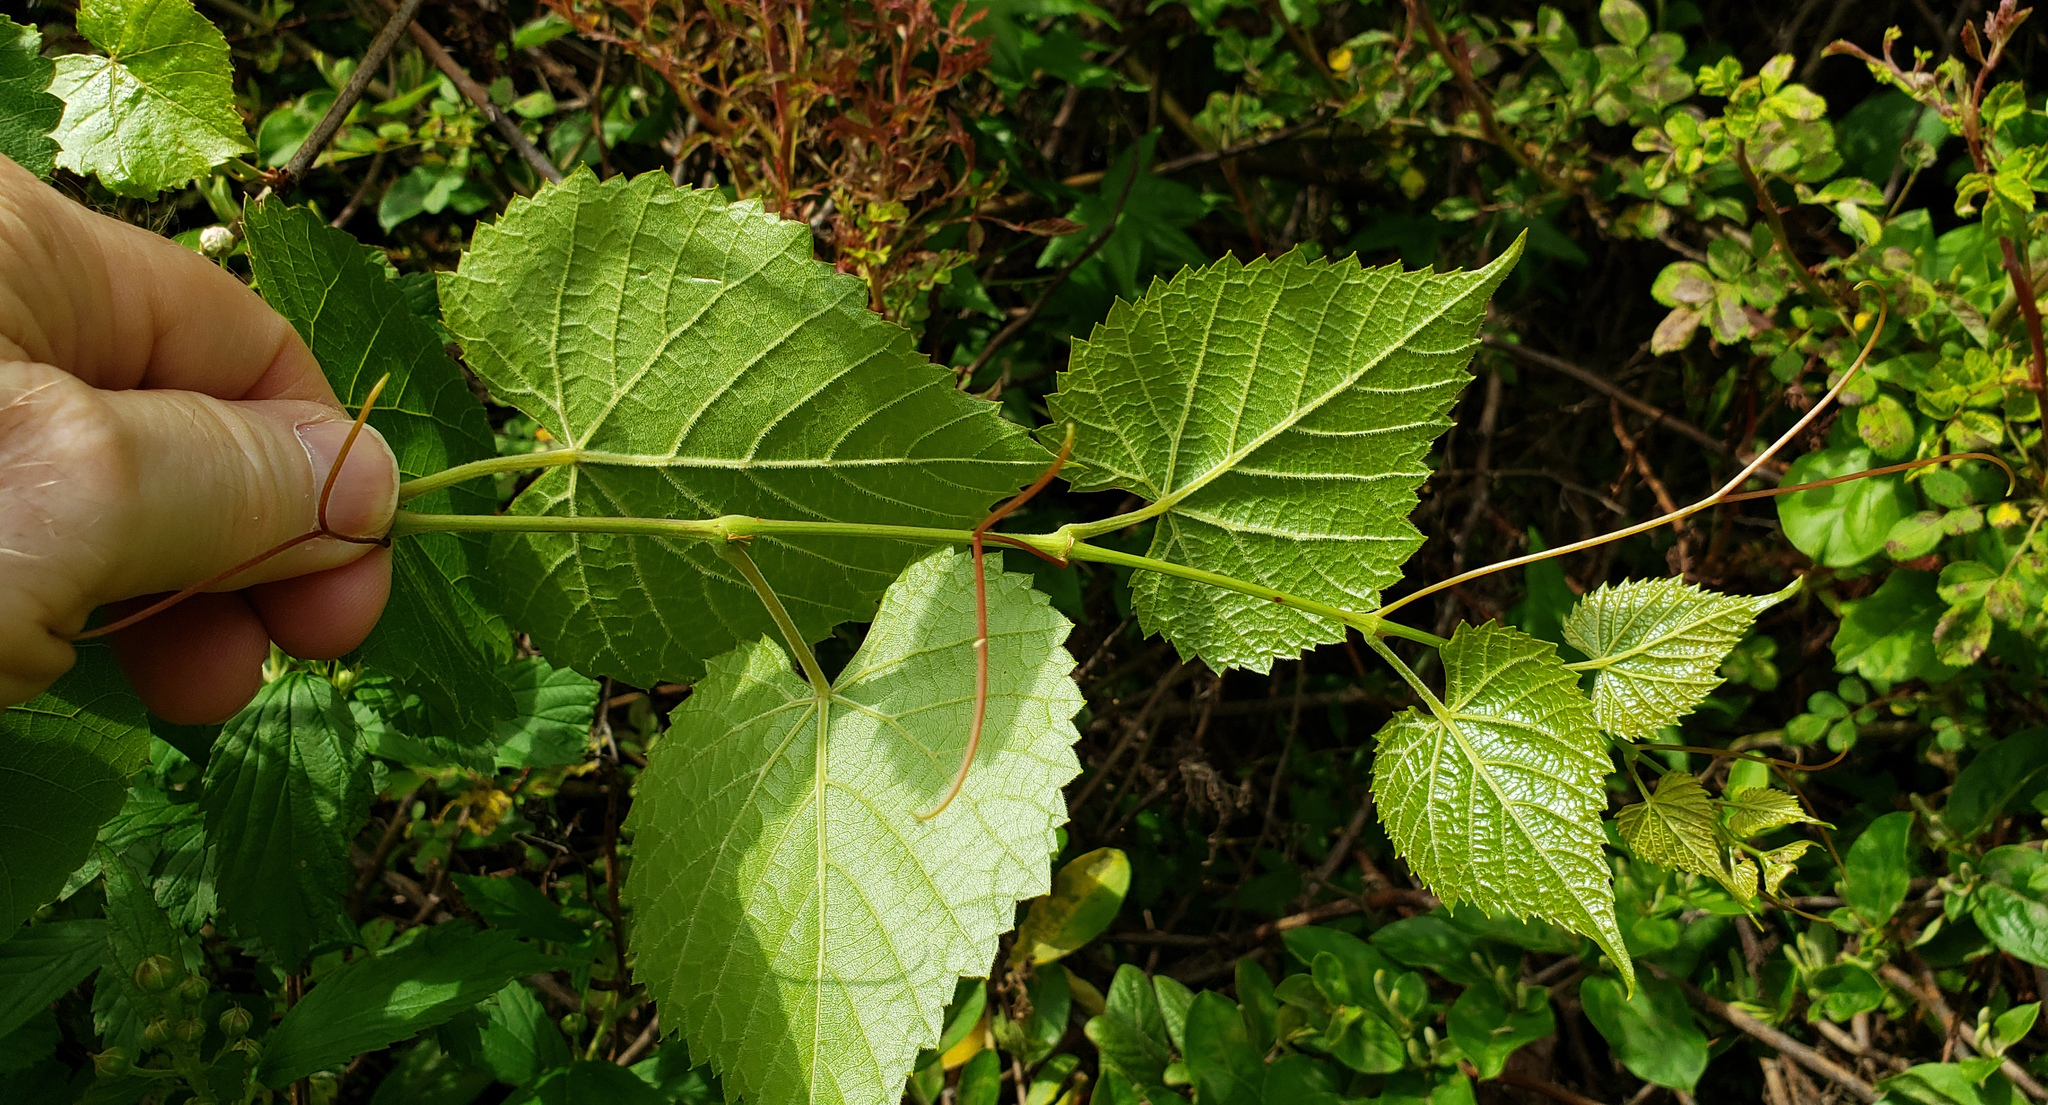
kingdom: Plantae
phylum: Tracheophyta
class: Magnoliopsida
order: Vitales
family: Vitaceae
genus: Vitis
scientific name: Vitis vulpina
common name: Frost grape
